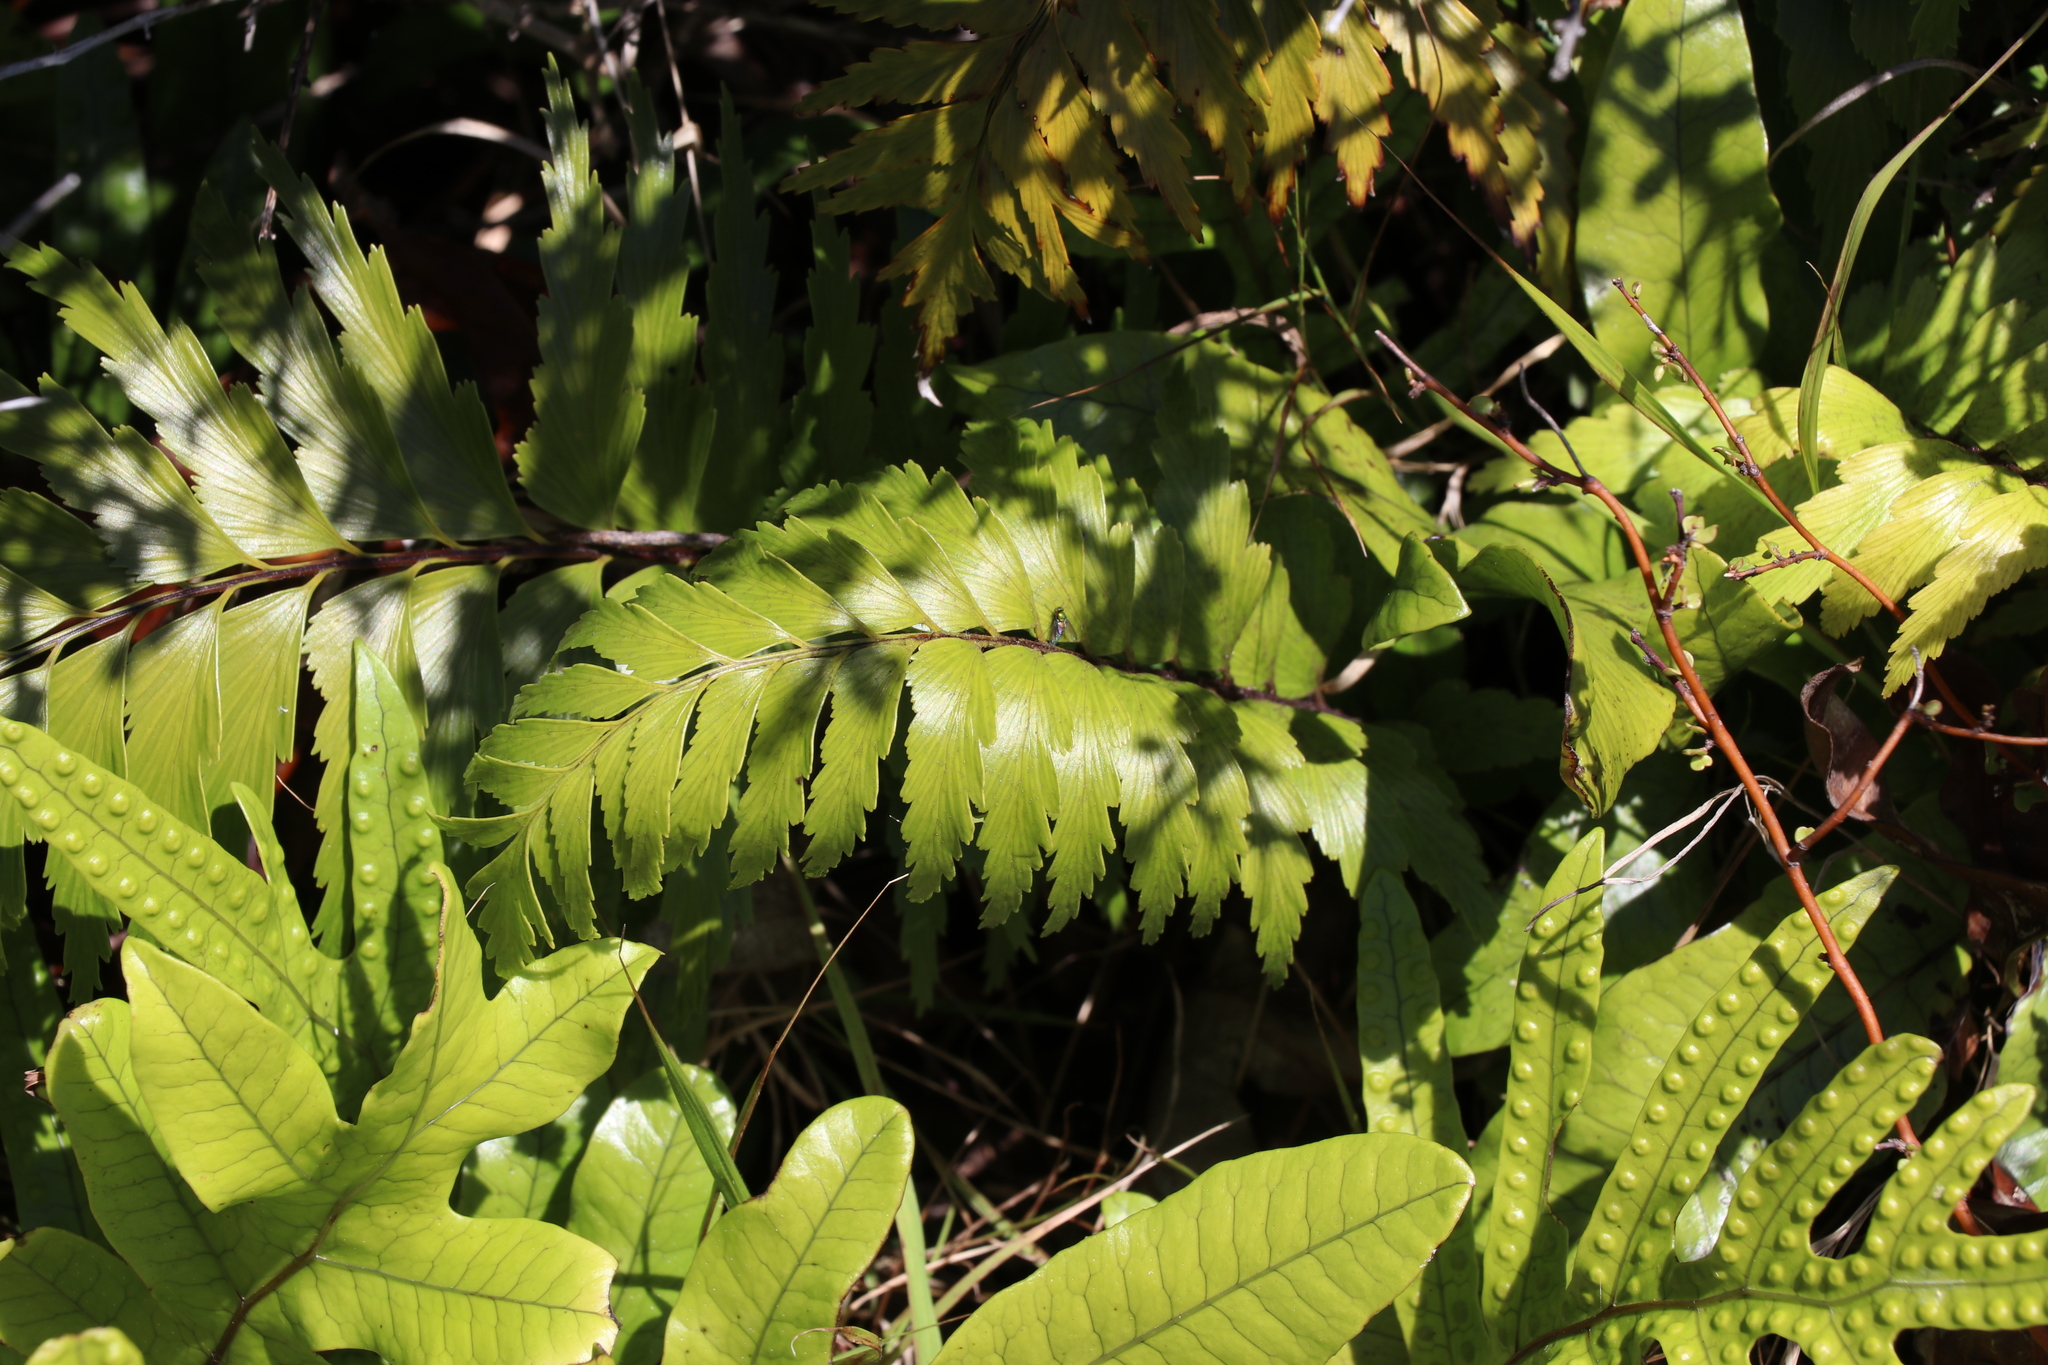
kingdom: Plantae
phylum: Tracheophyta
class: Polypodiopsida
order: Polypodiales
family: Aspleniaceae
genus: Asplenium
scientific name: Asplenium polyodon
